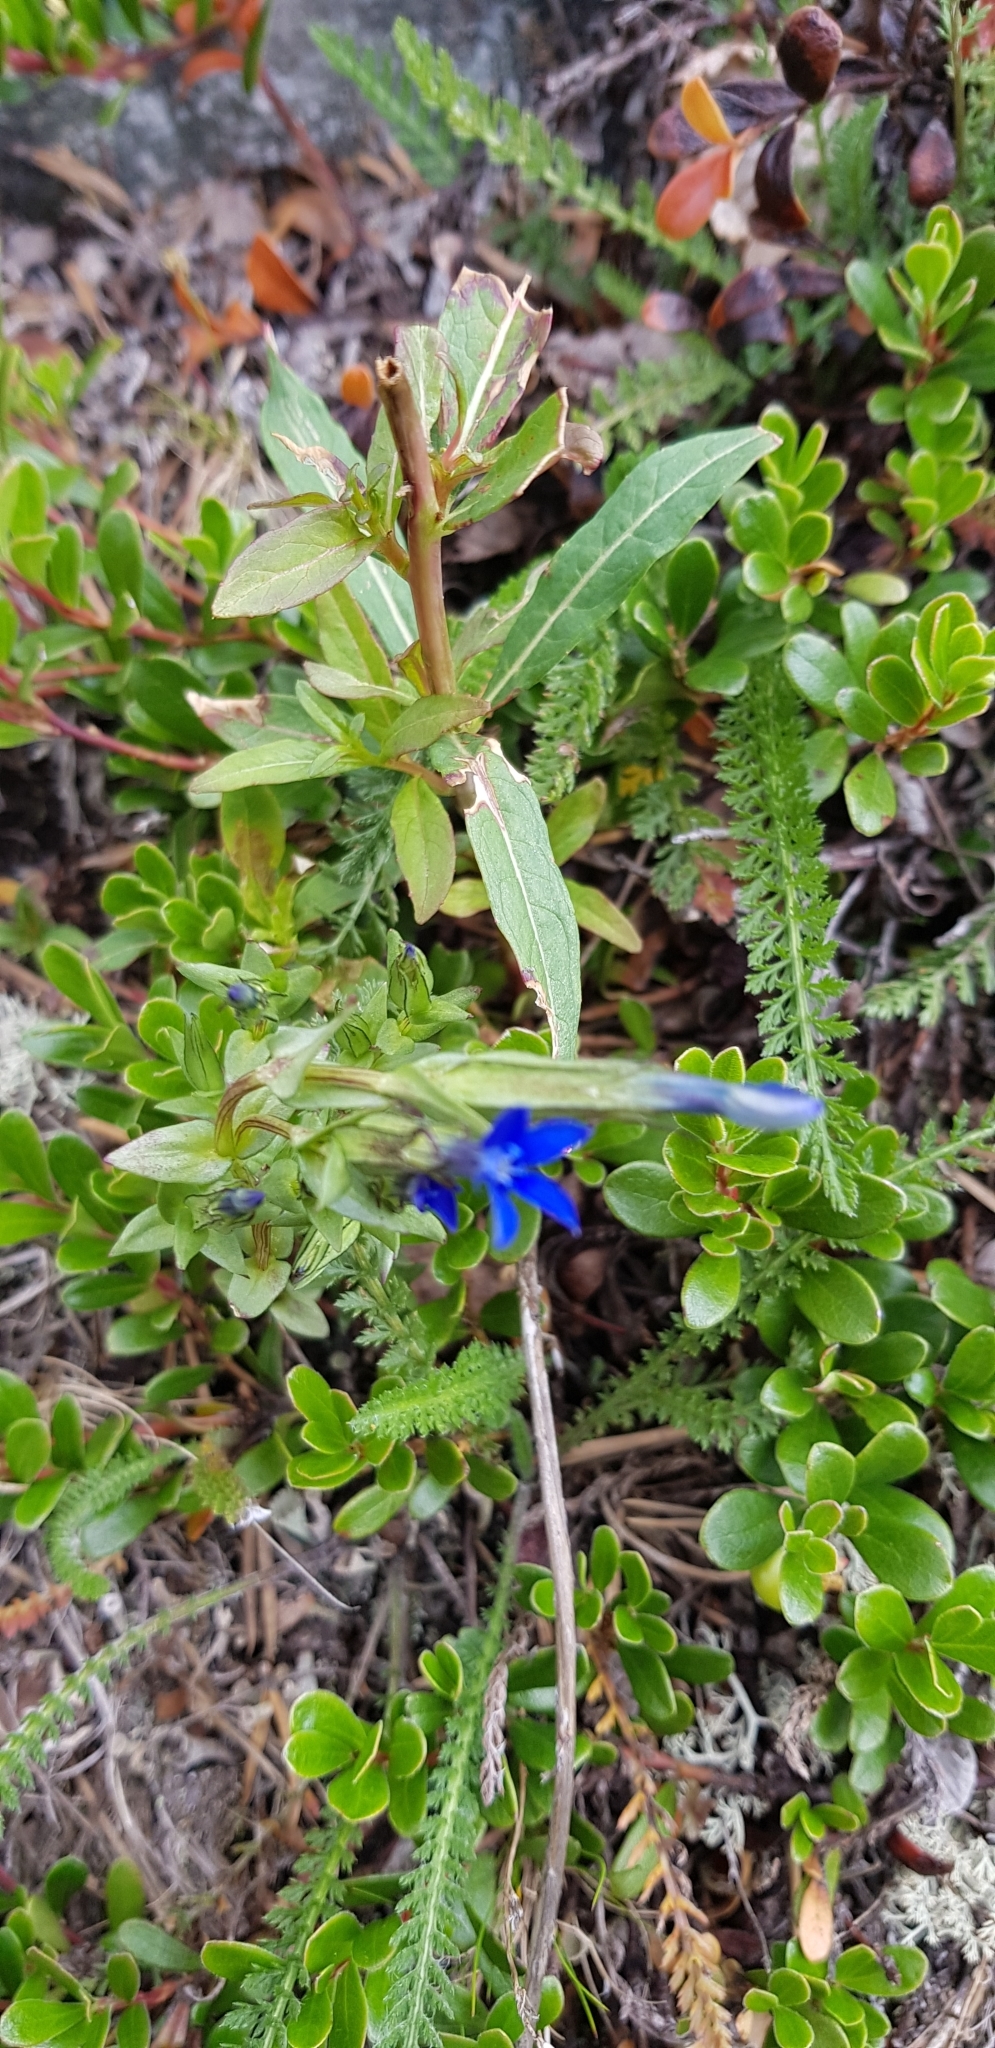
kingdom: Plantae
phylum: Tracheophyta
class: Magnoliopsida
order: Gentianales
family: Gentianaceae
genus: Gentiana
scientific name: Gentiana nivalis
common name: Alpine gentian
